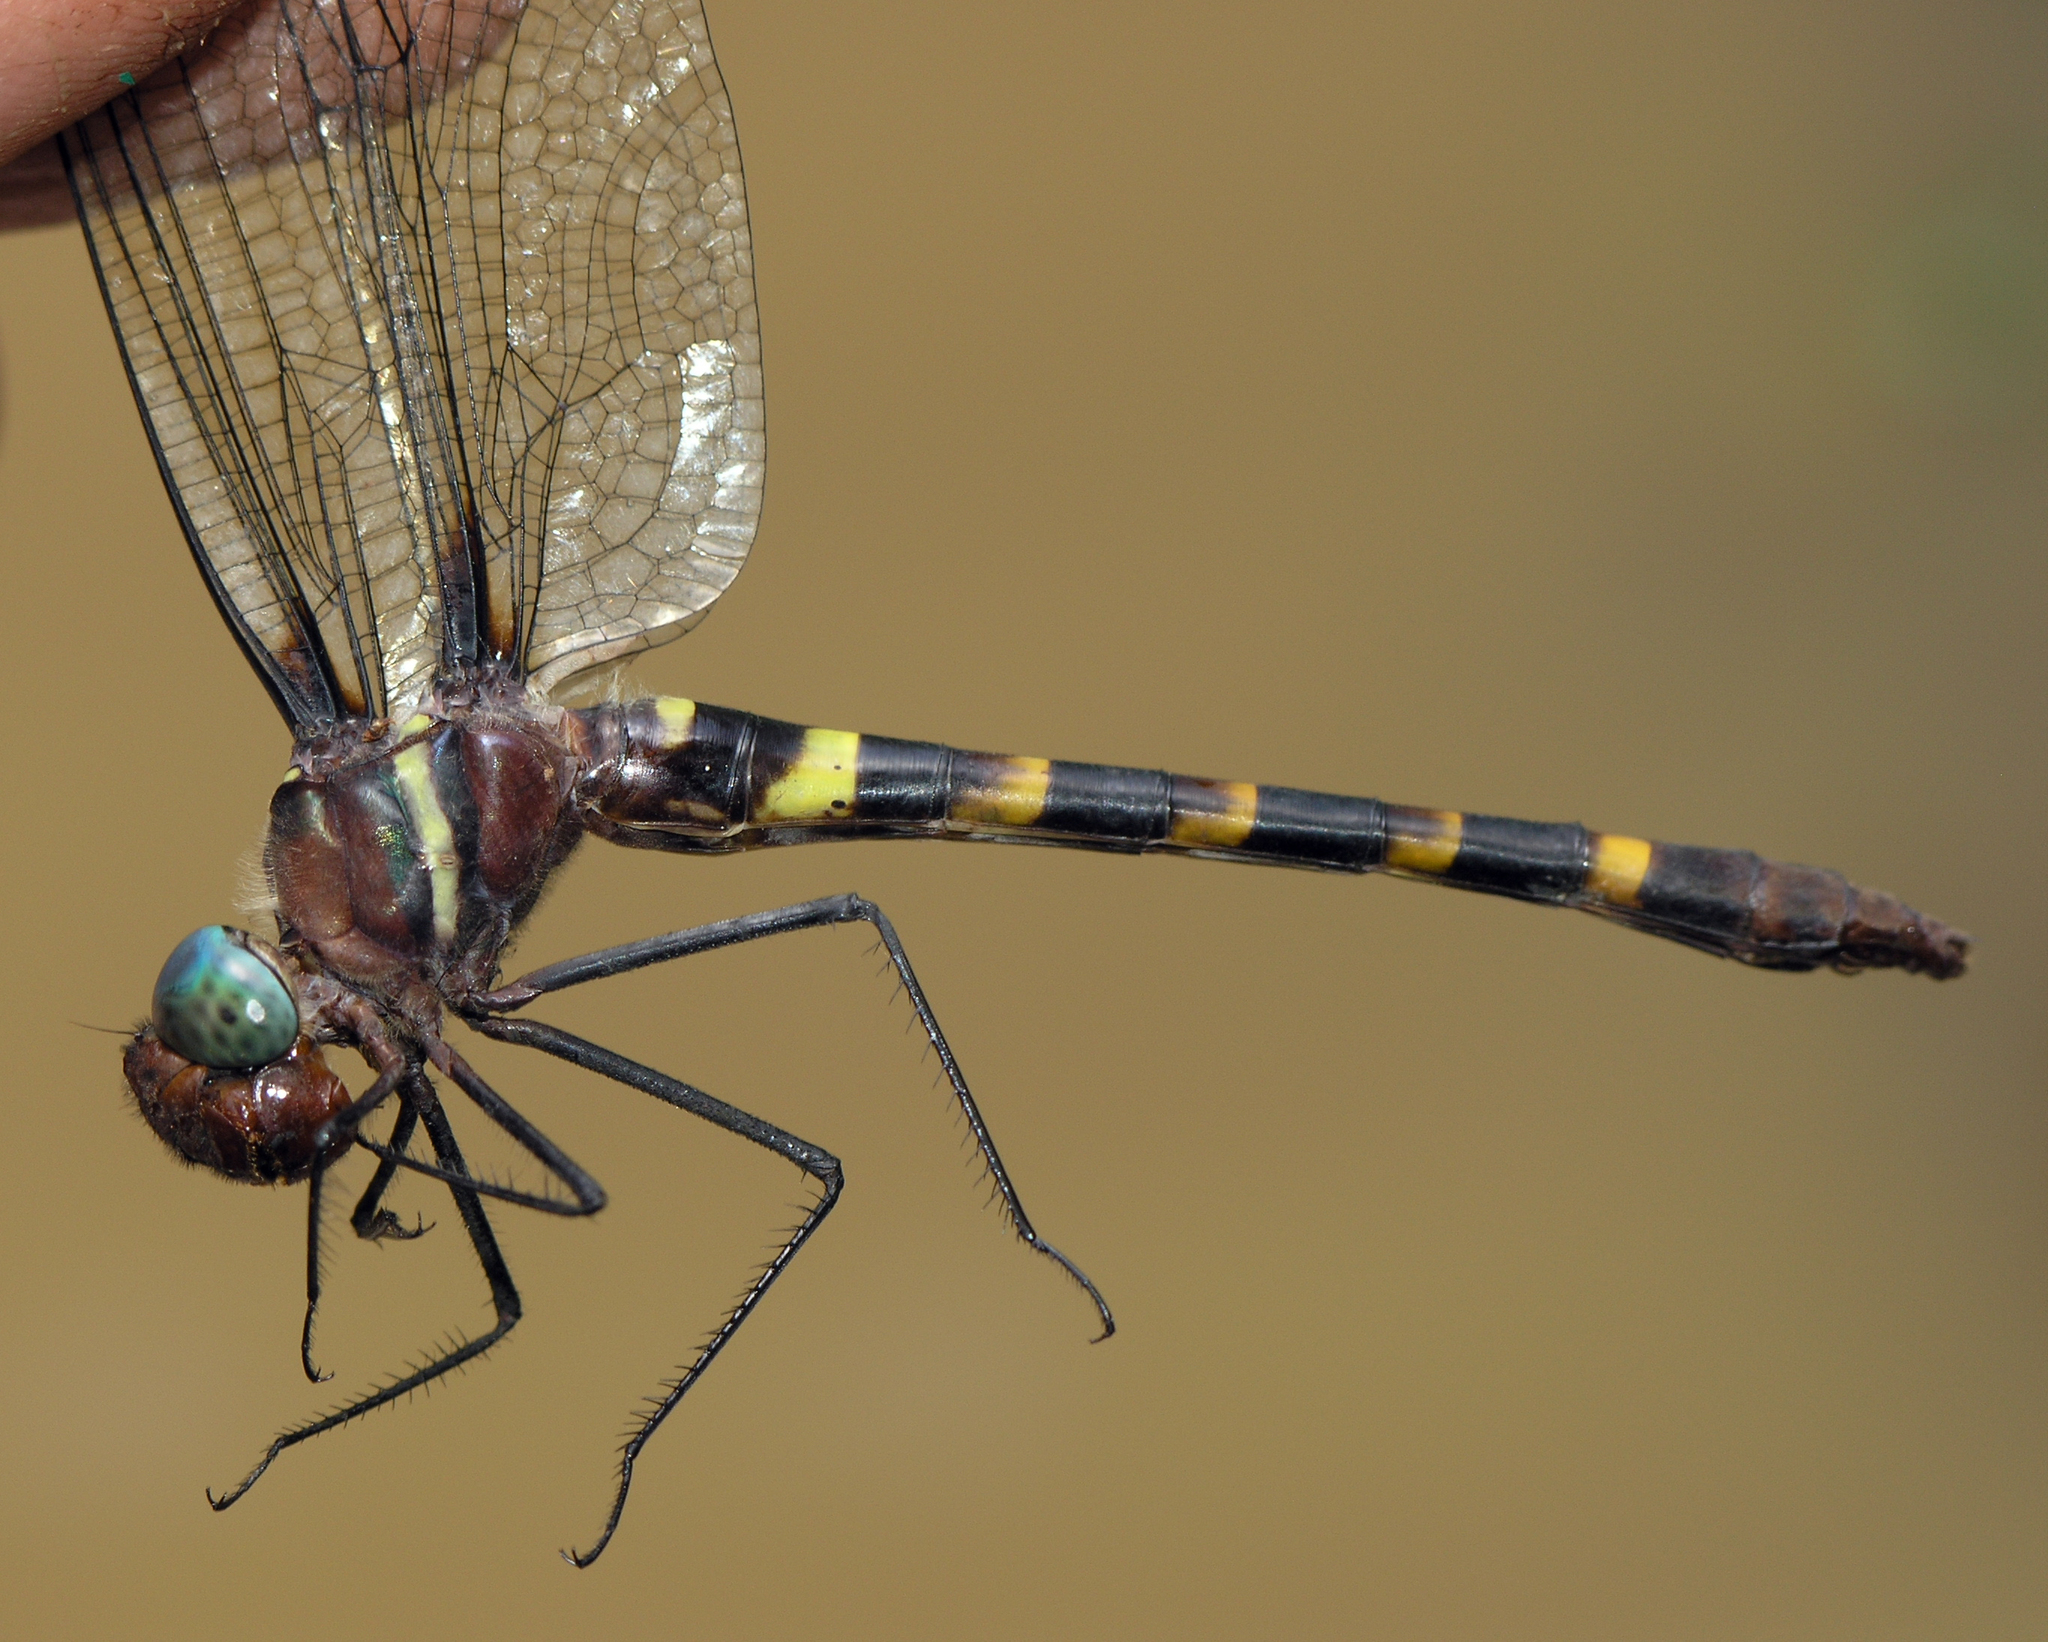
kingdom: Animalia
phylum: Arthropoda
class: Insecta
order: Odonata
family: Macromiidae
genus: Macromia
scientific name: Macromia cupricincta
